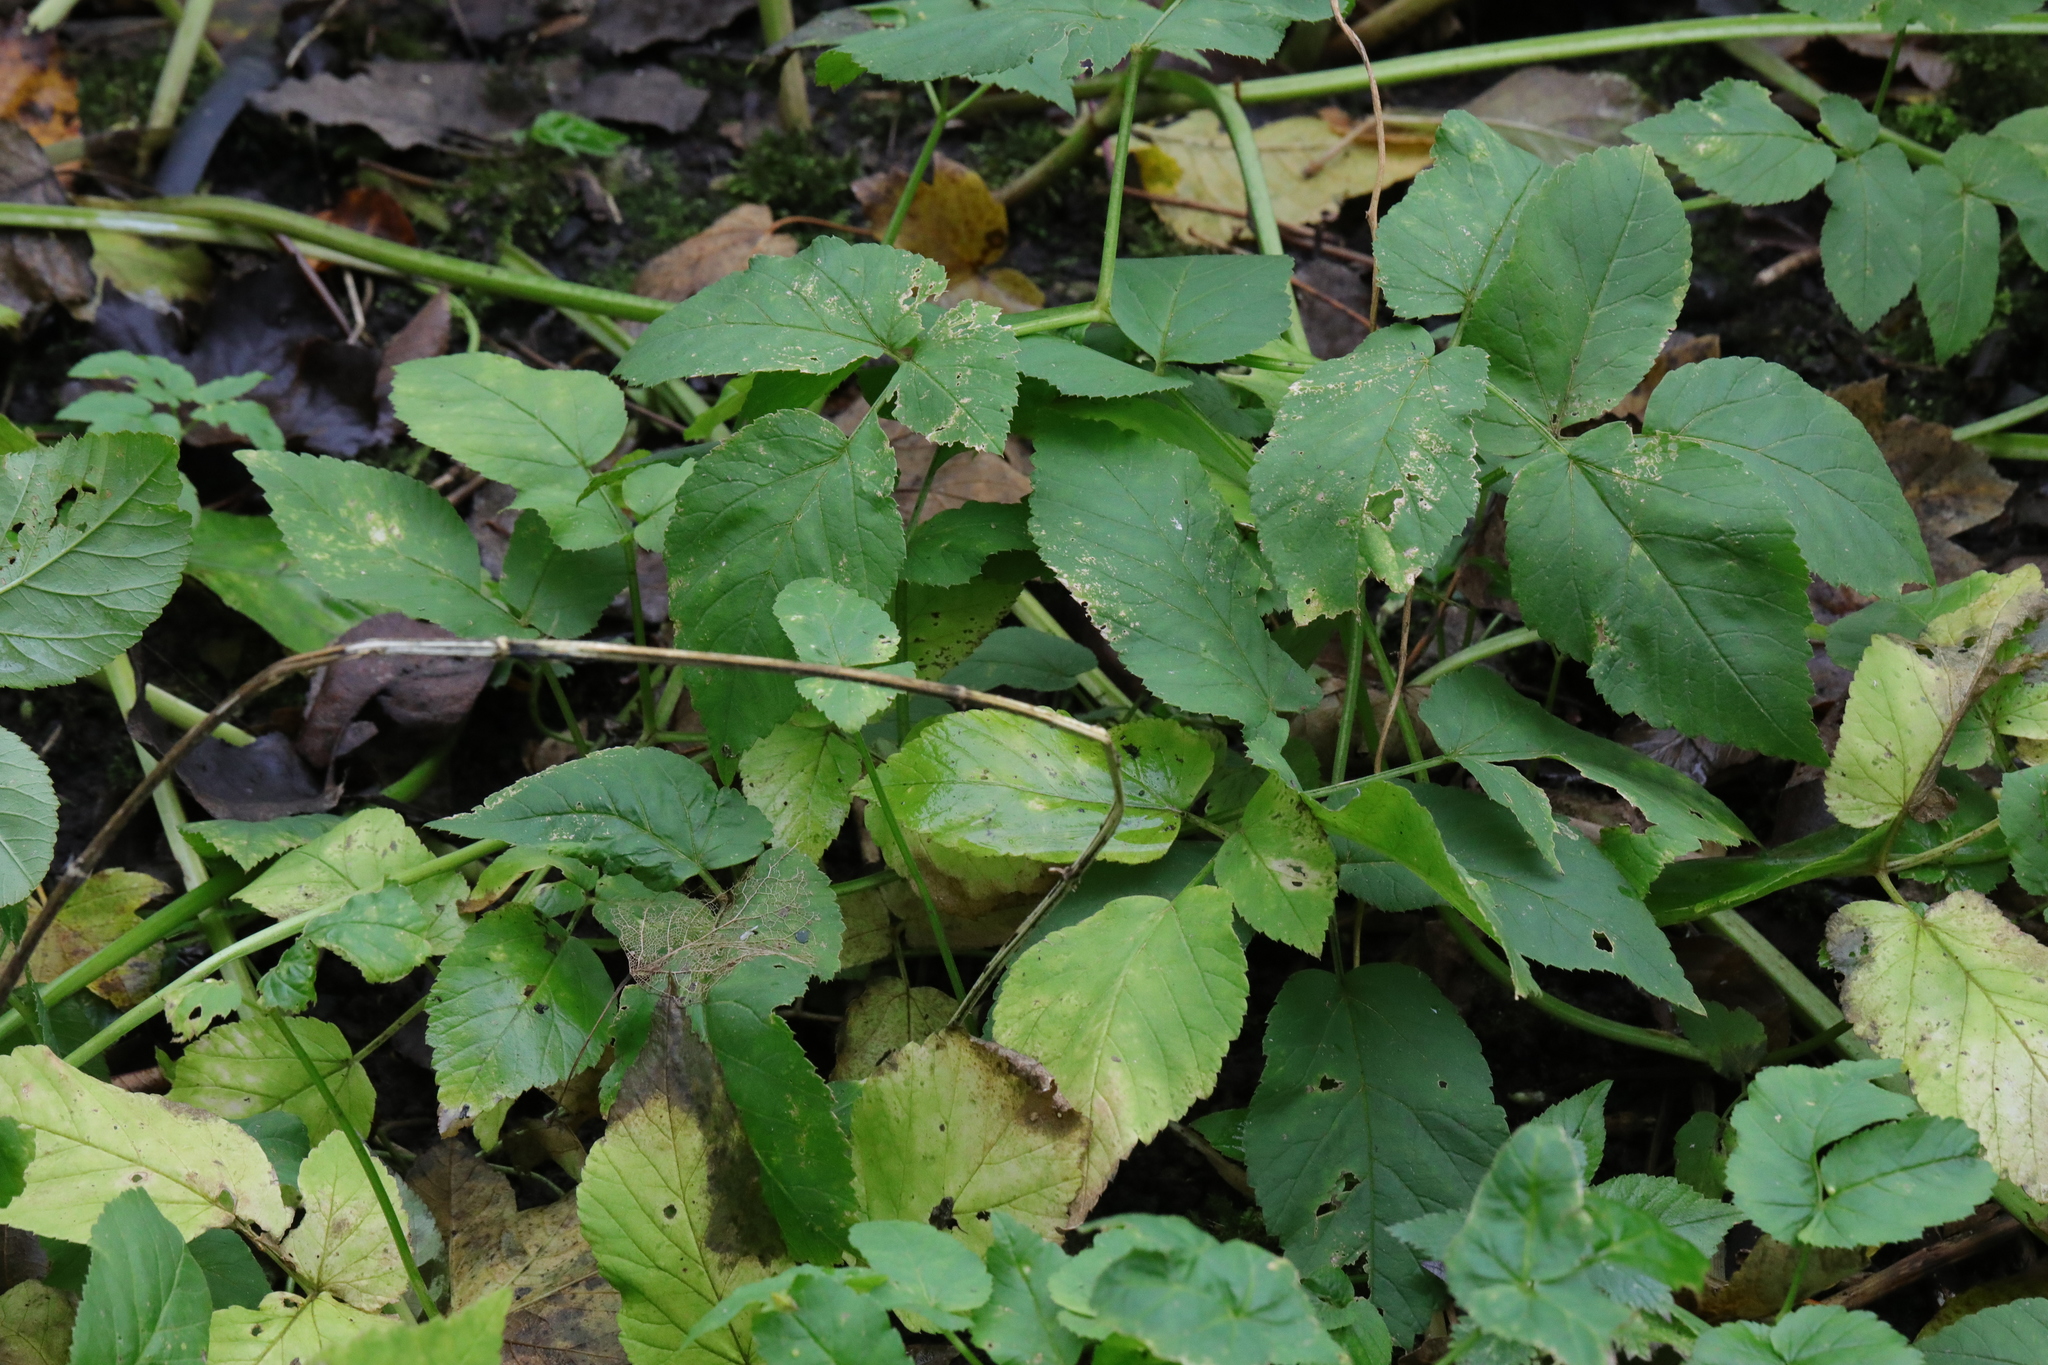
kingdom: Plantae
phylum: Tracheophyta
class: Magnoliopsida
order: Apiales
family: Apiaceae
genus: Aegopodium
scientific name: Aegopodium podagraria
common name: Ground-elder
